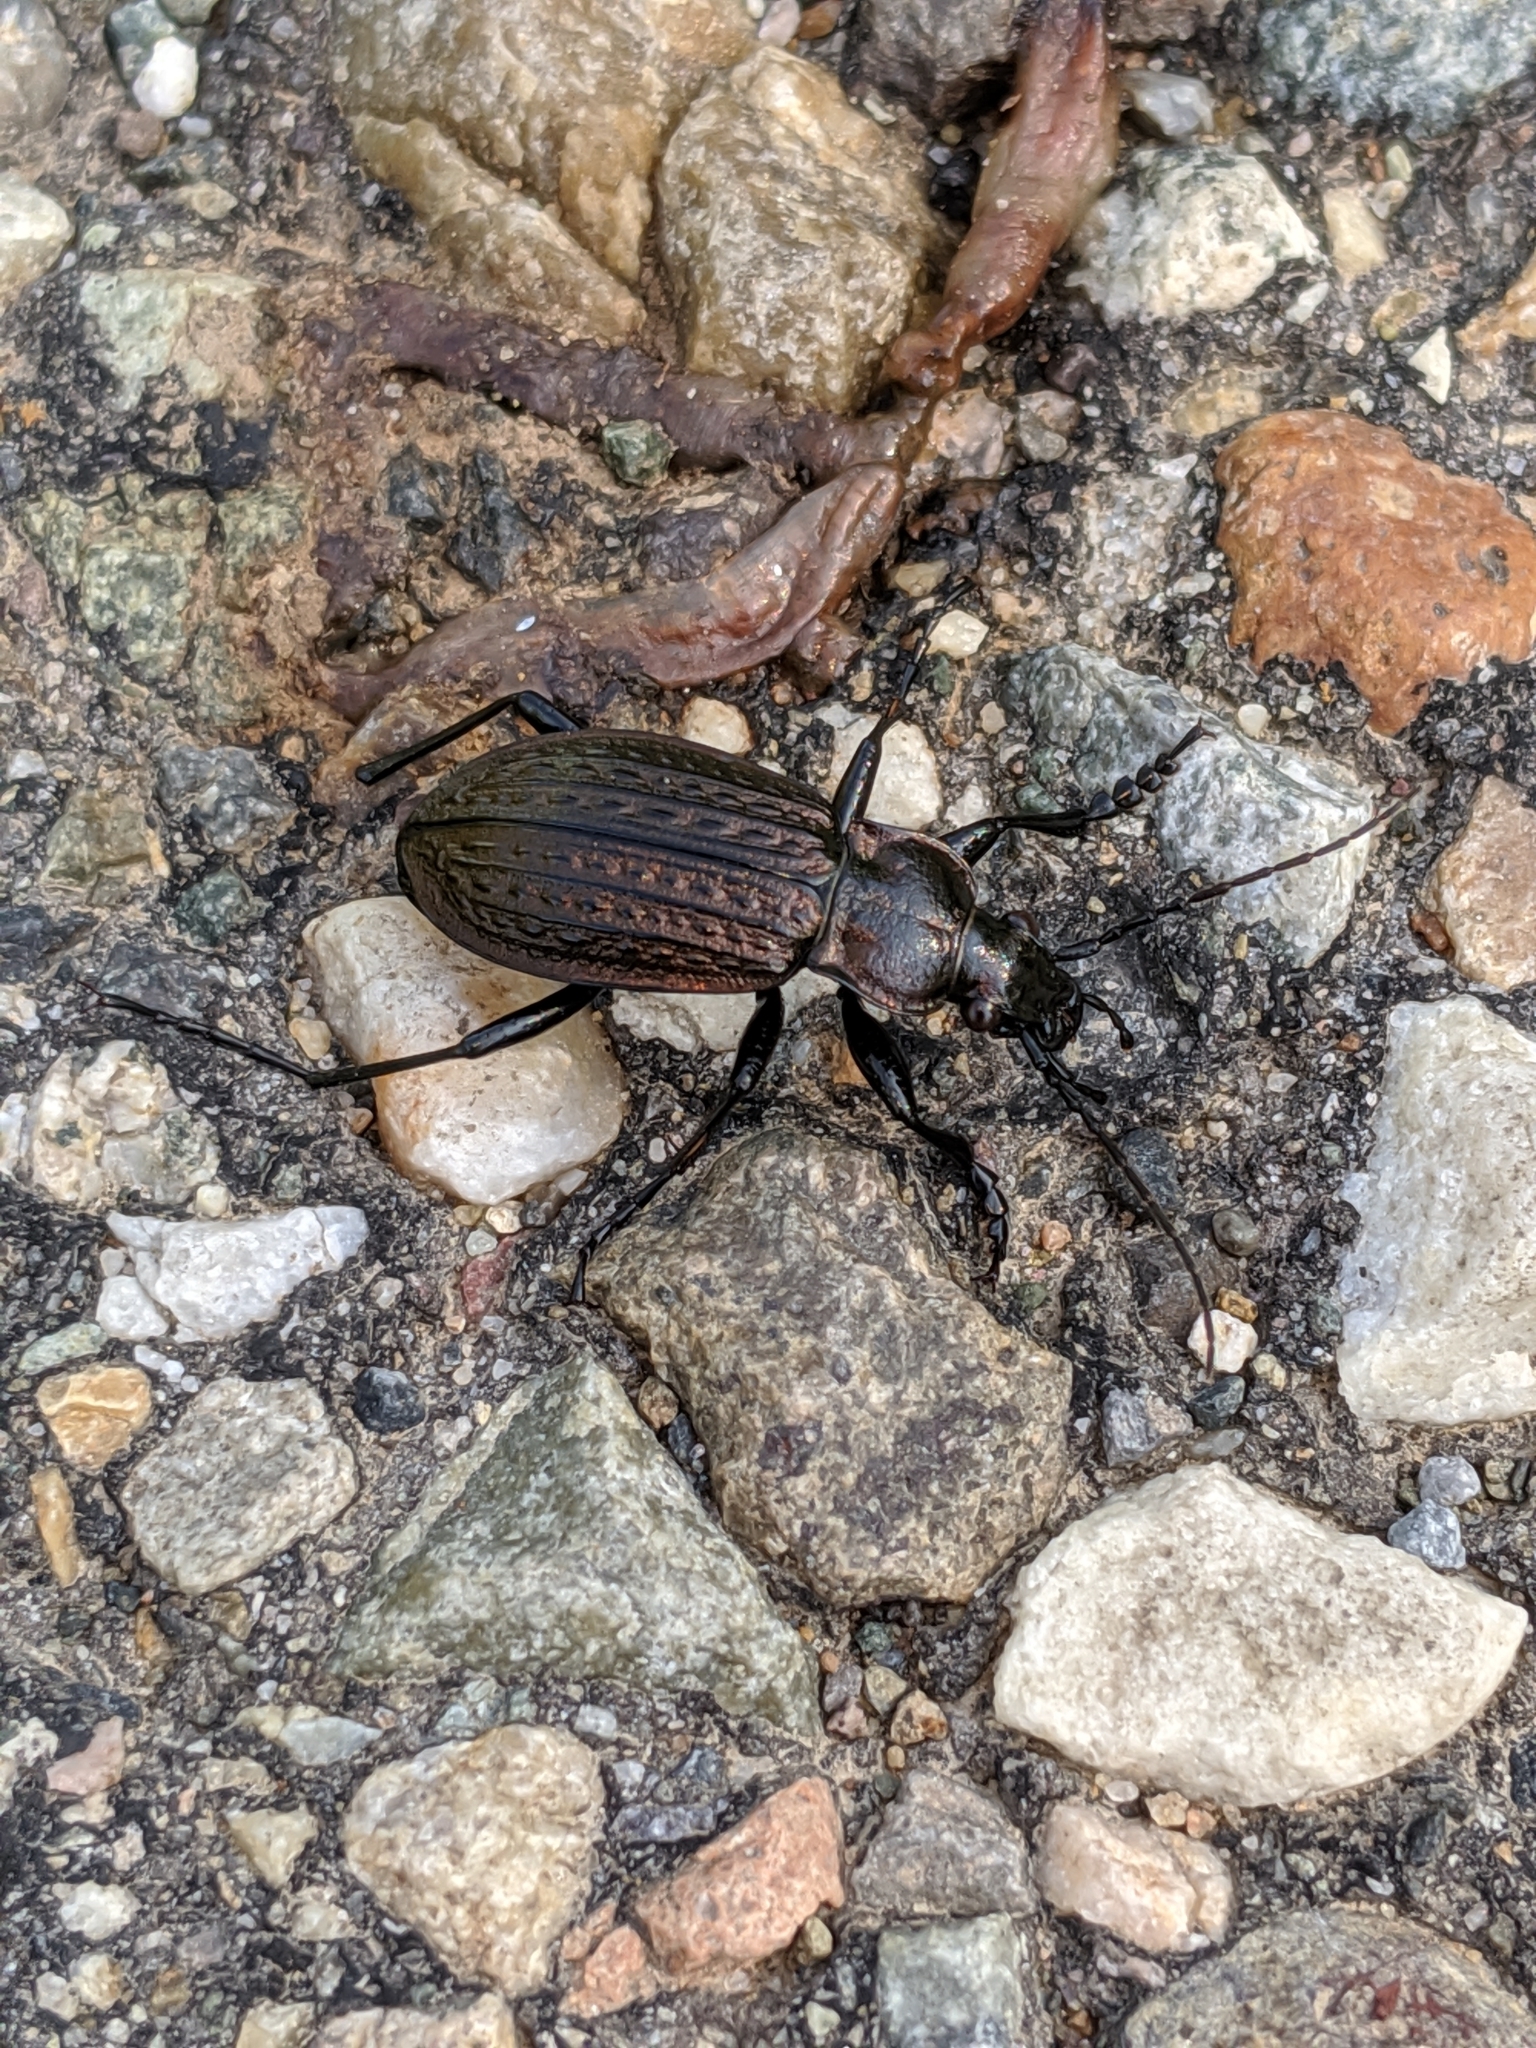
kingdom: Animalia
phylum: Arthropoda
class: Insecta
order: Coleoptera
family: Carabidae
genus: Carabus
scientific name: Carabus granulatus
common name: Granulate ground beetle
